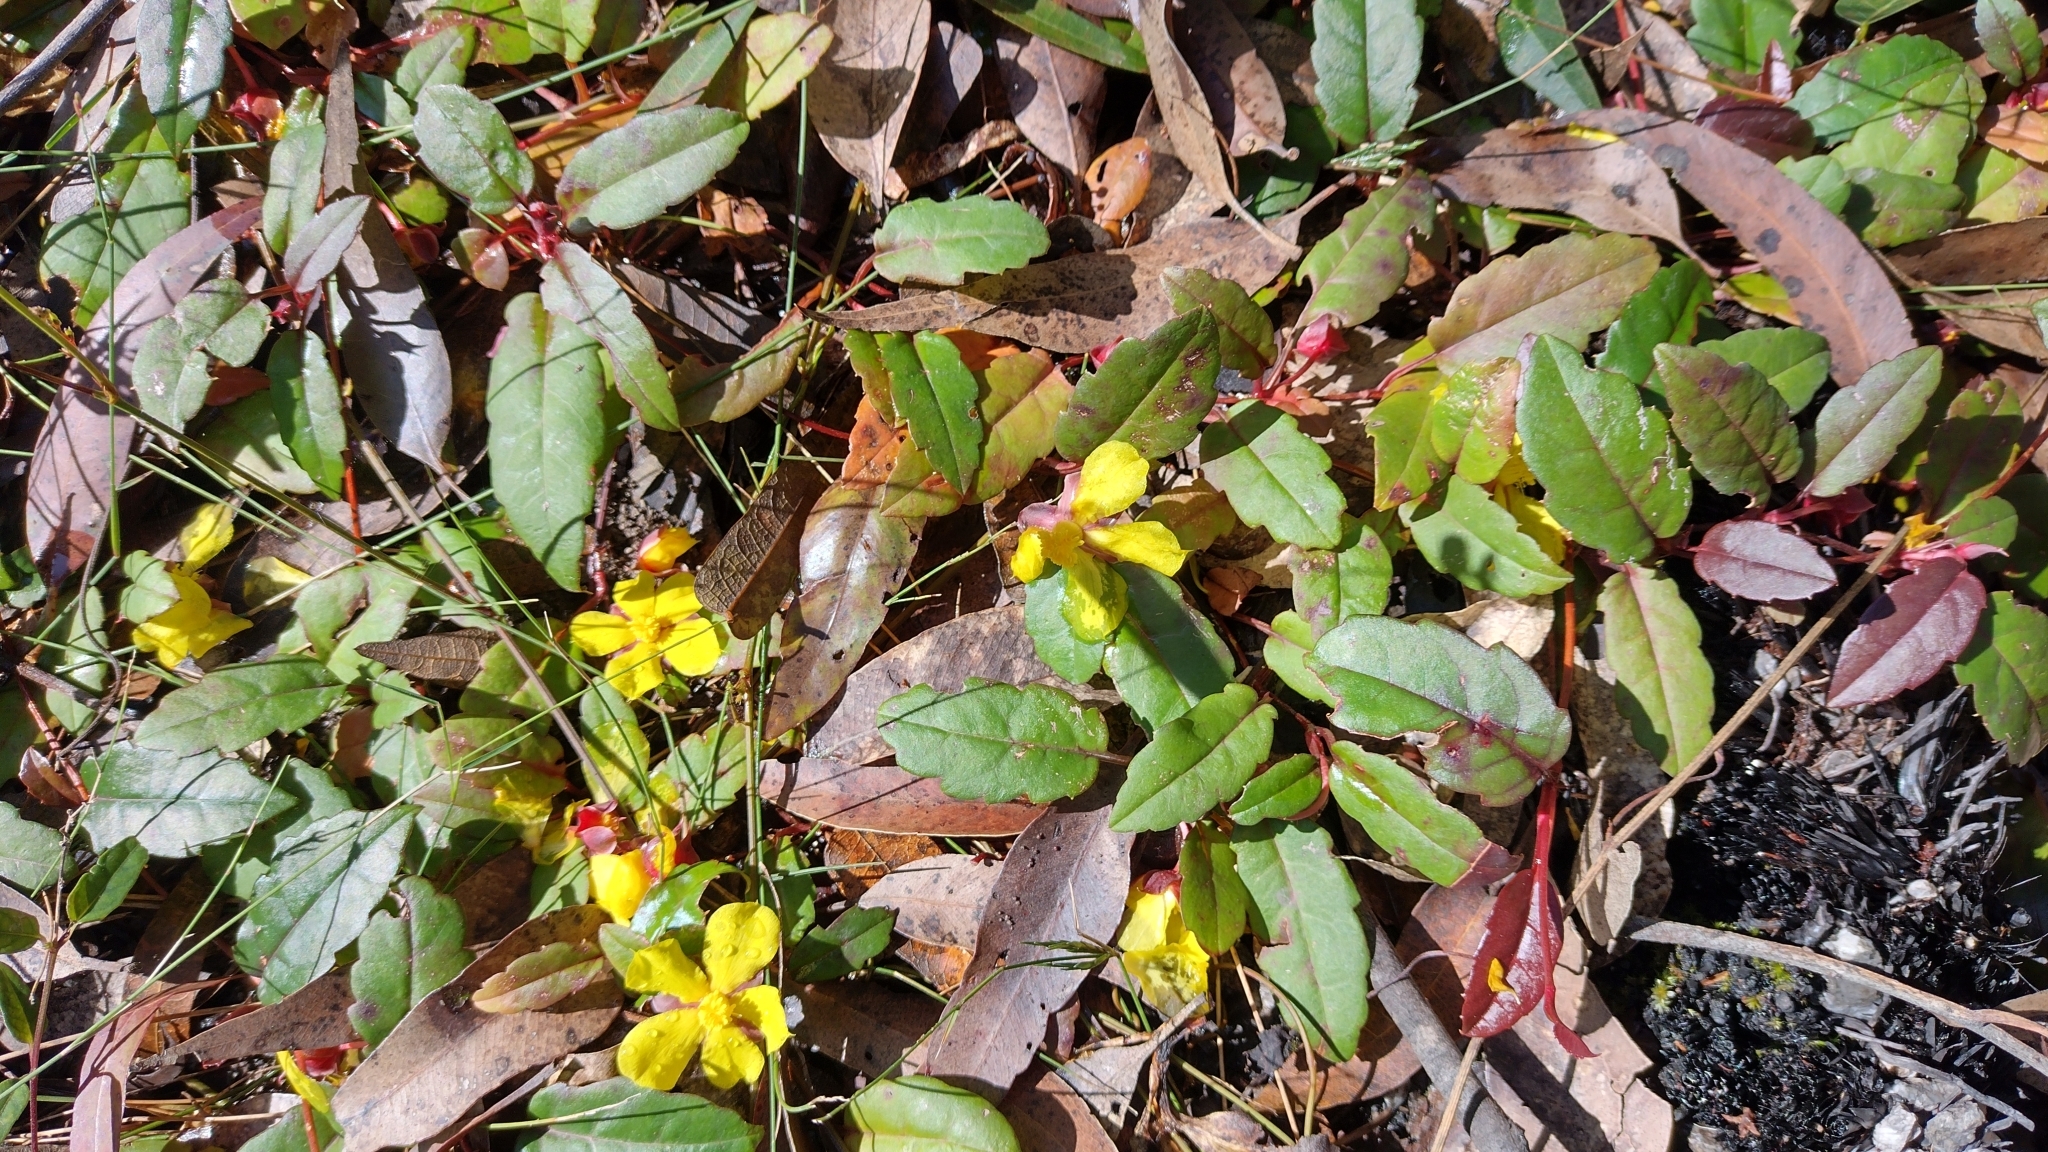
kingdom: Plantae
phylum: Tracheophyta
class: Magnoliopsida
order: Dilleniales
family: Dilleniaceae
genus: Hibbertia
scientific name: Hibbertia dentata
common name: Trailing guinea-flower
